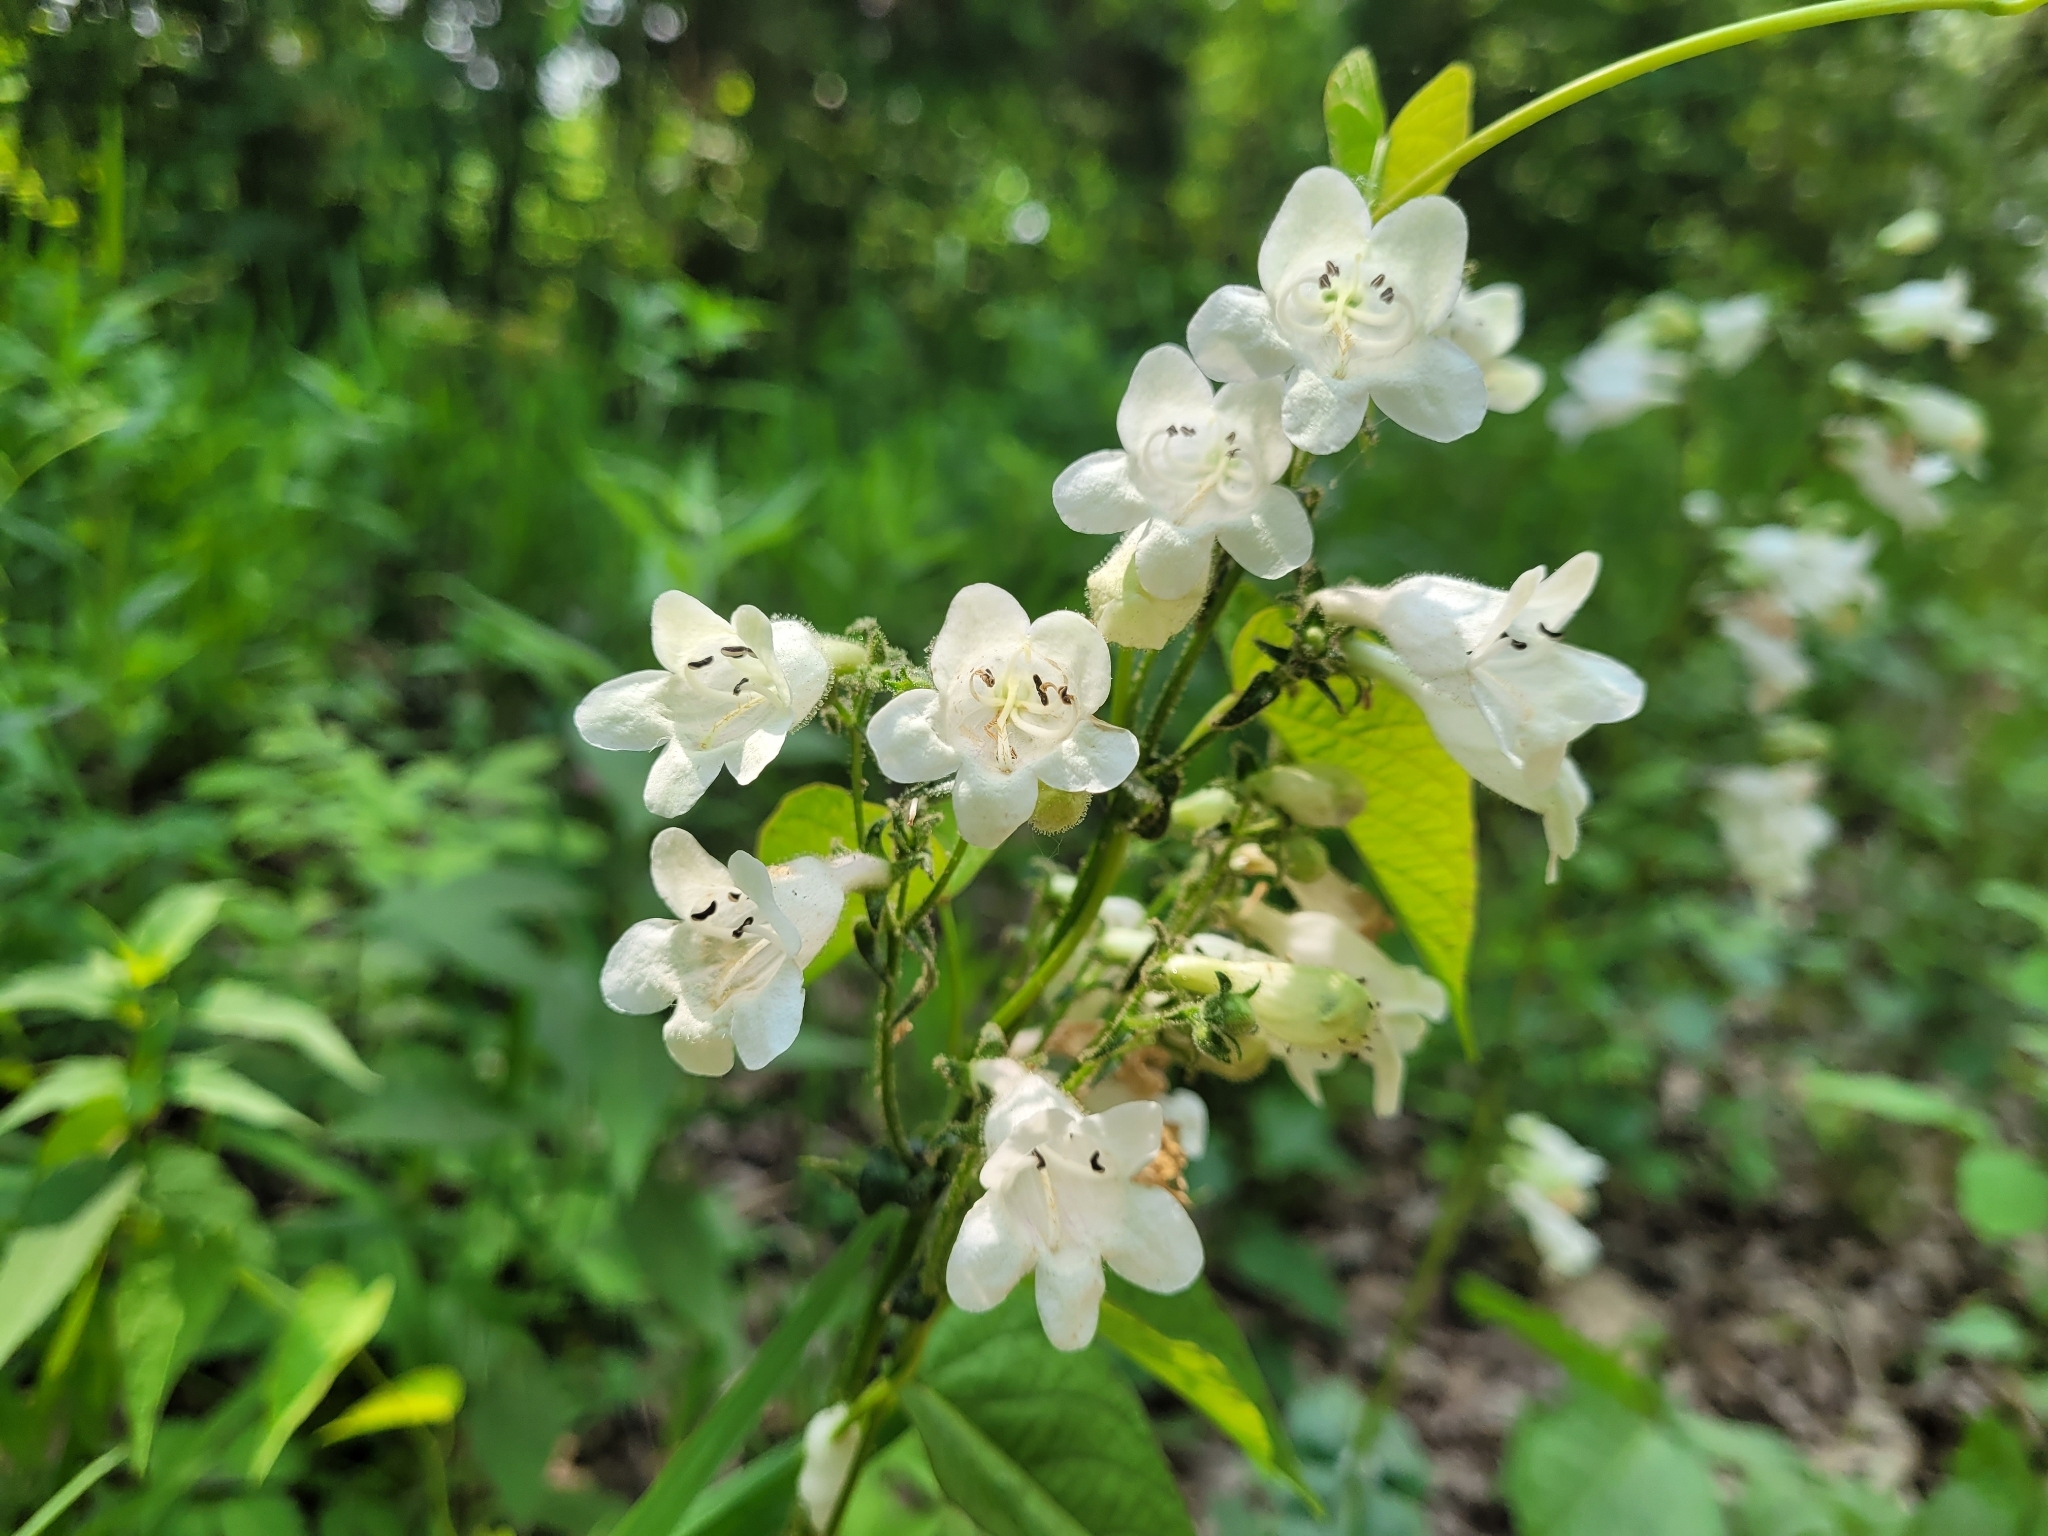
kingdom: Plantae
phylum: Tracheophyta
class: Magnoliopsida
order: Lamiales
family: Plantaginaceae
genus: Penstemon
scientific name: Penstemon digitalis
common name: Foxglove beardtongue
